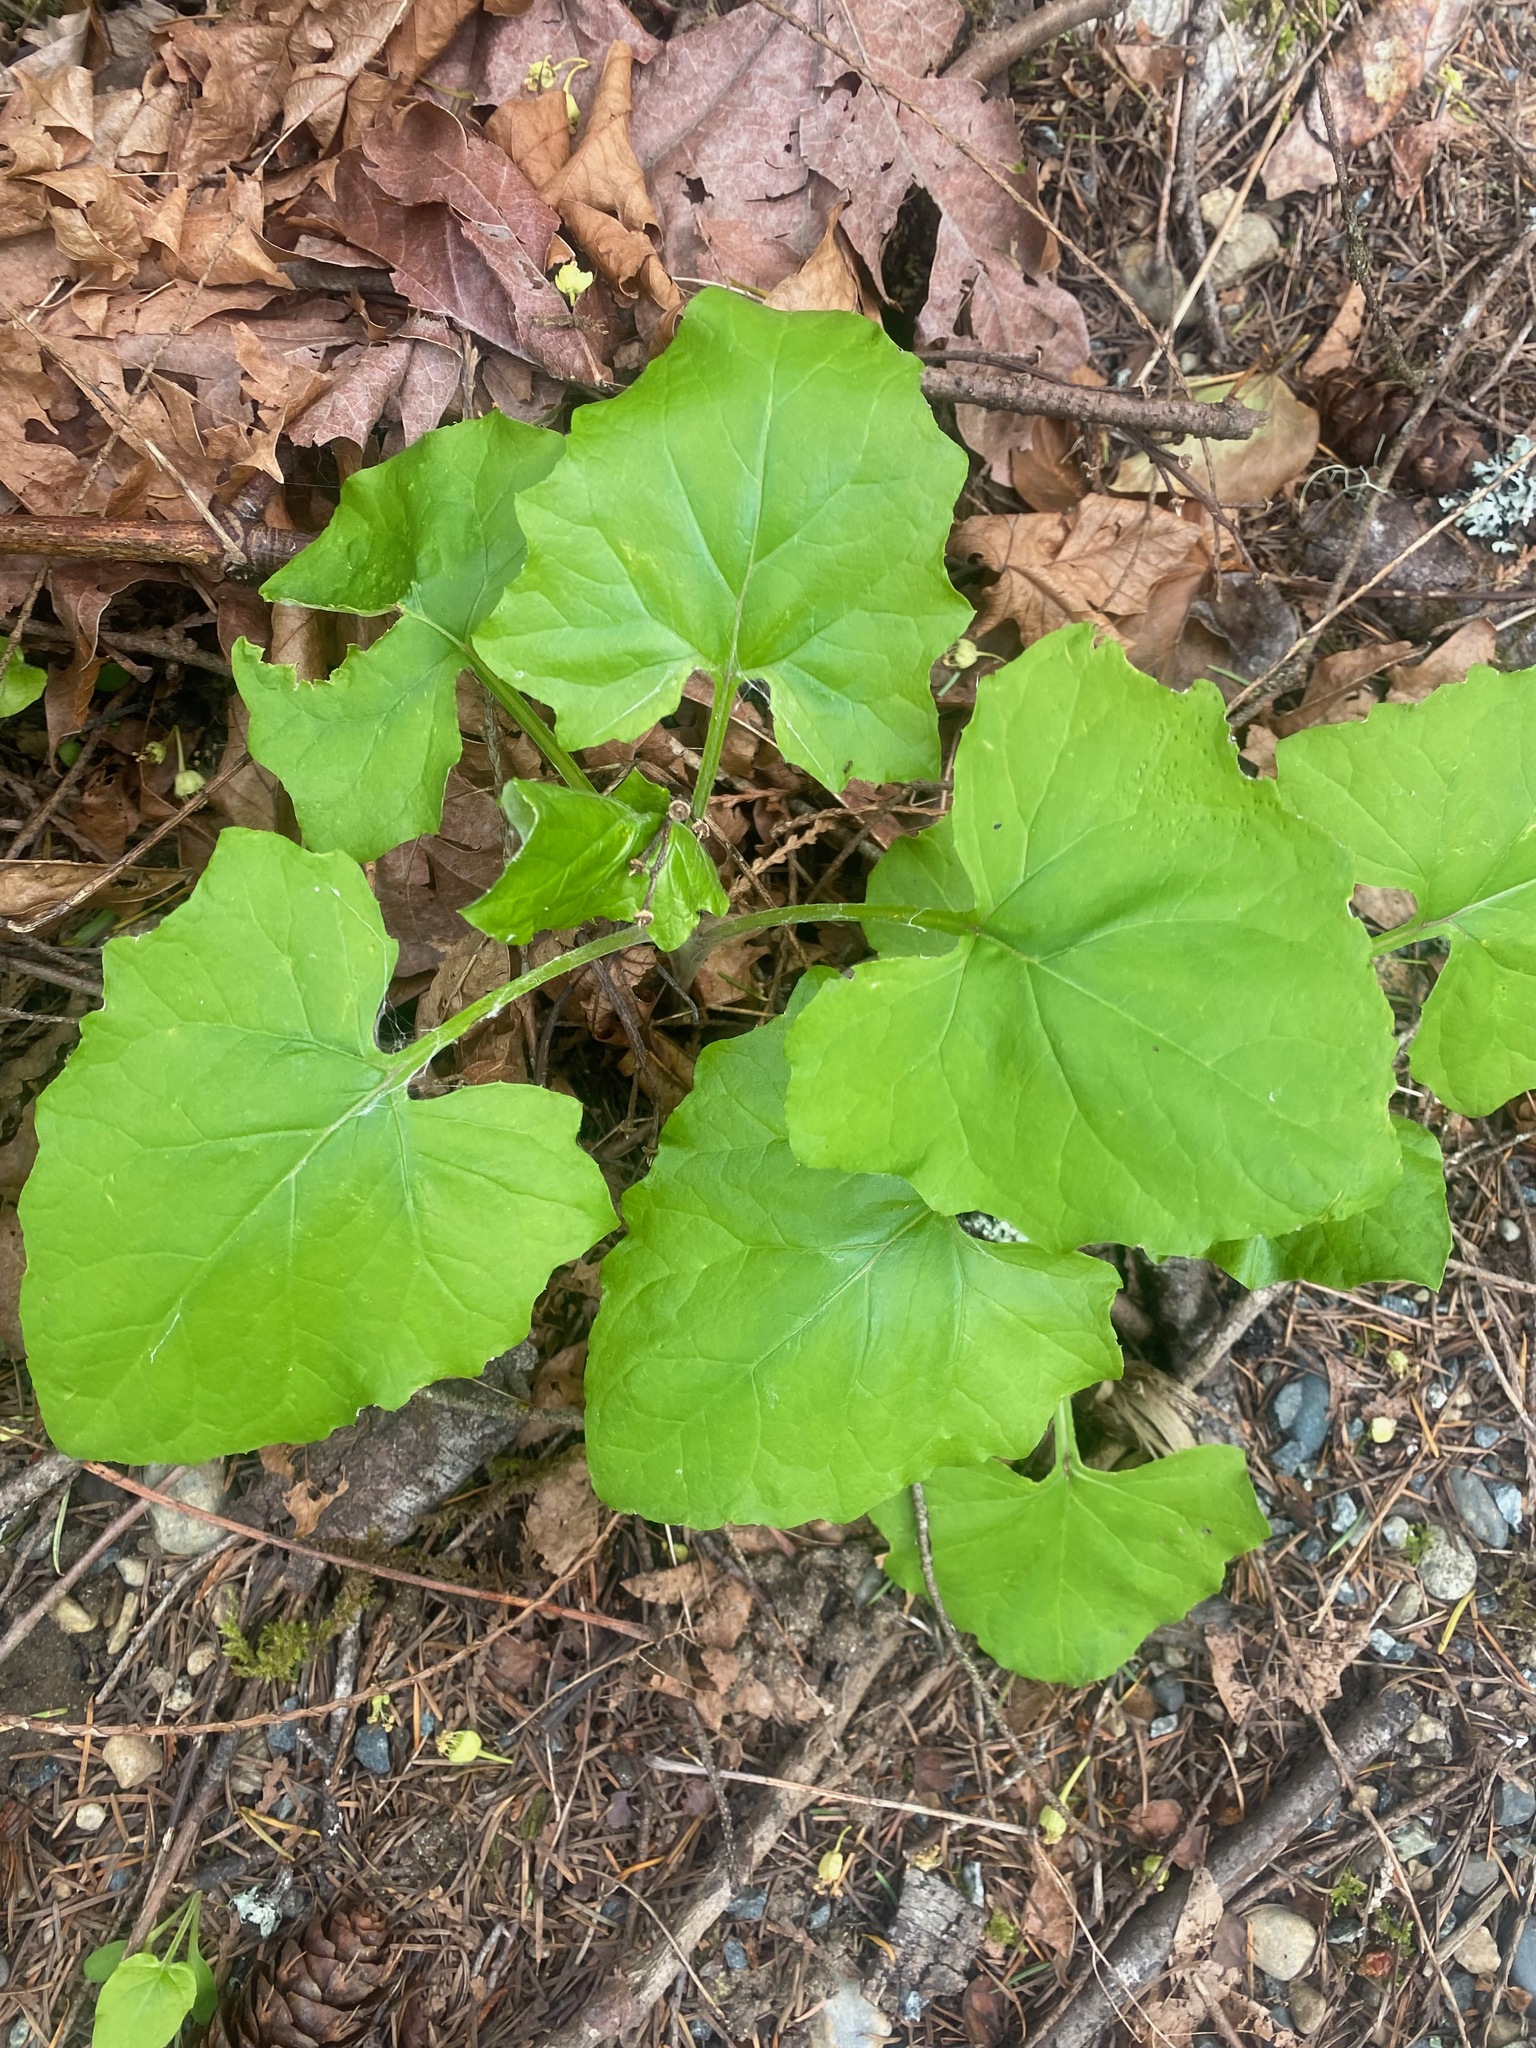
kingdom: Plantae
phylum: Tracheophyta
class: Magnoliopsida
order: Asterales
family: Asteraceae
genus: Adenocaulon
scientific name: Adenocaulon bicolor
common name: Trailplant
